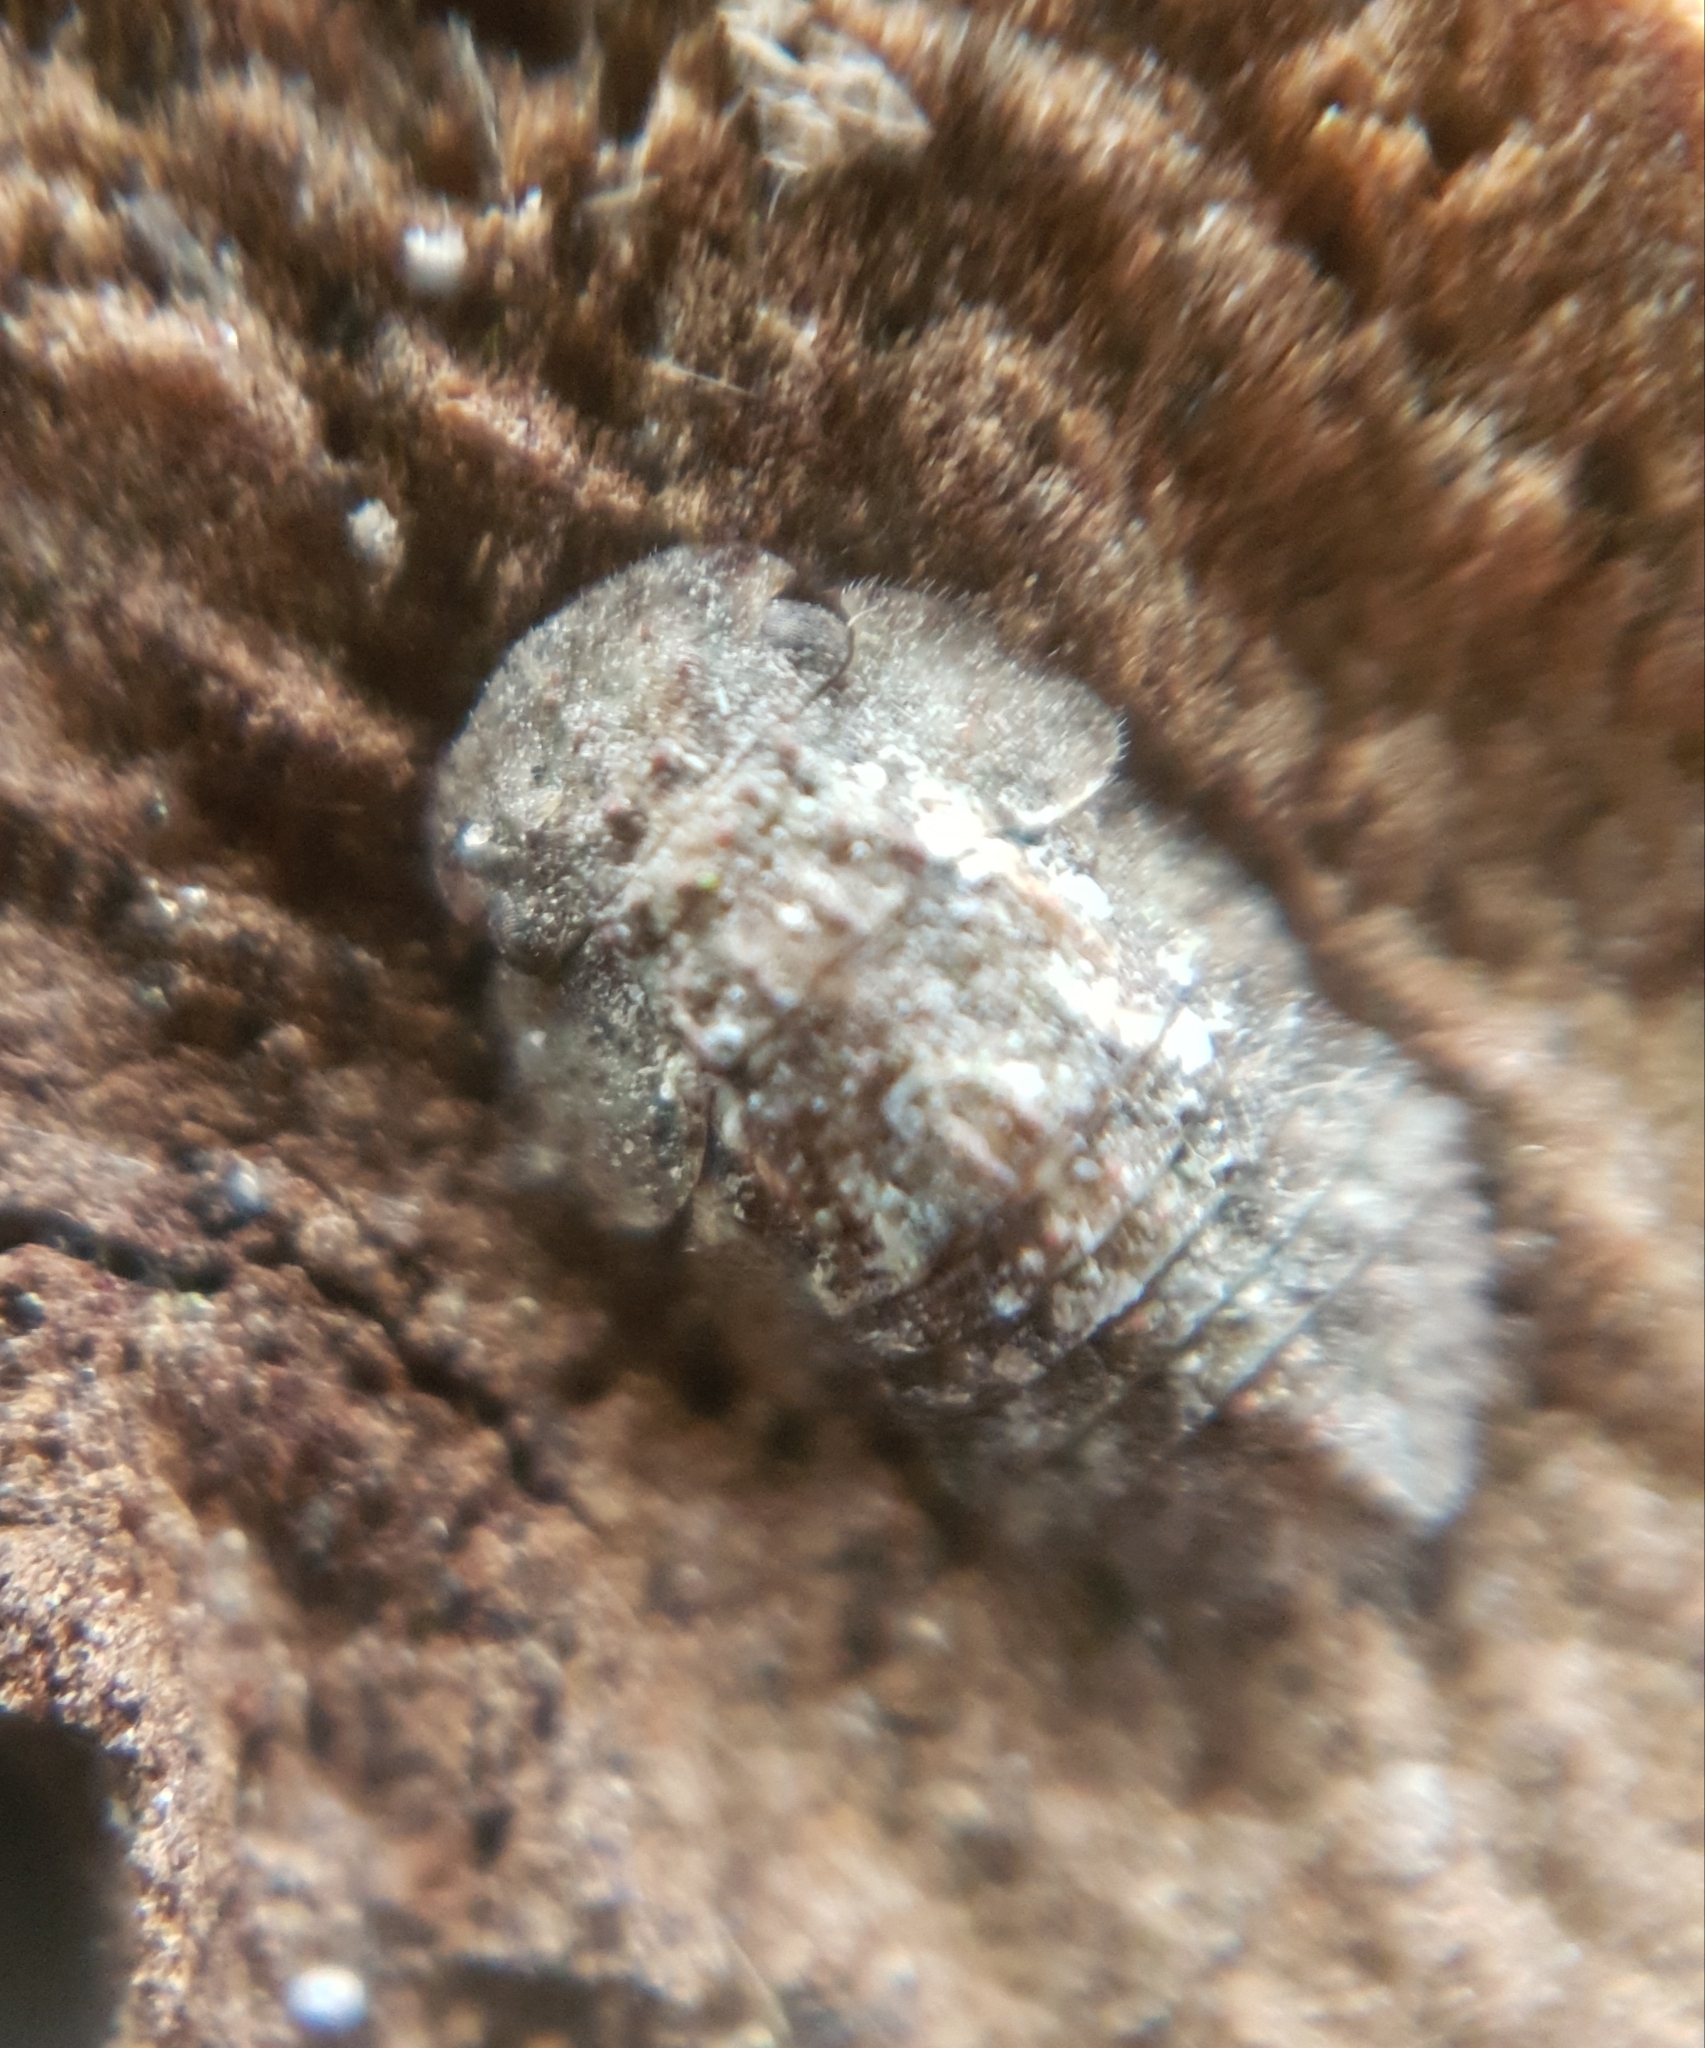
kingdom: Animalia
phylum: Arthropoda
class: Insecta
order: Hemiptera
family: Cicadellidae
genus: Ledra
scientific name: Ledra aurita
